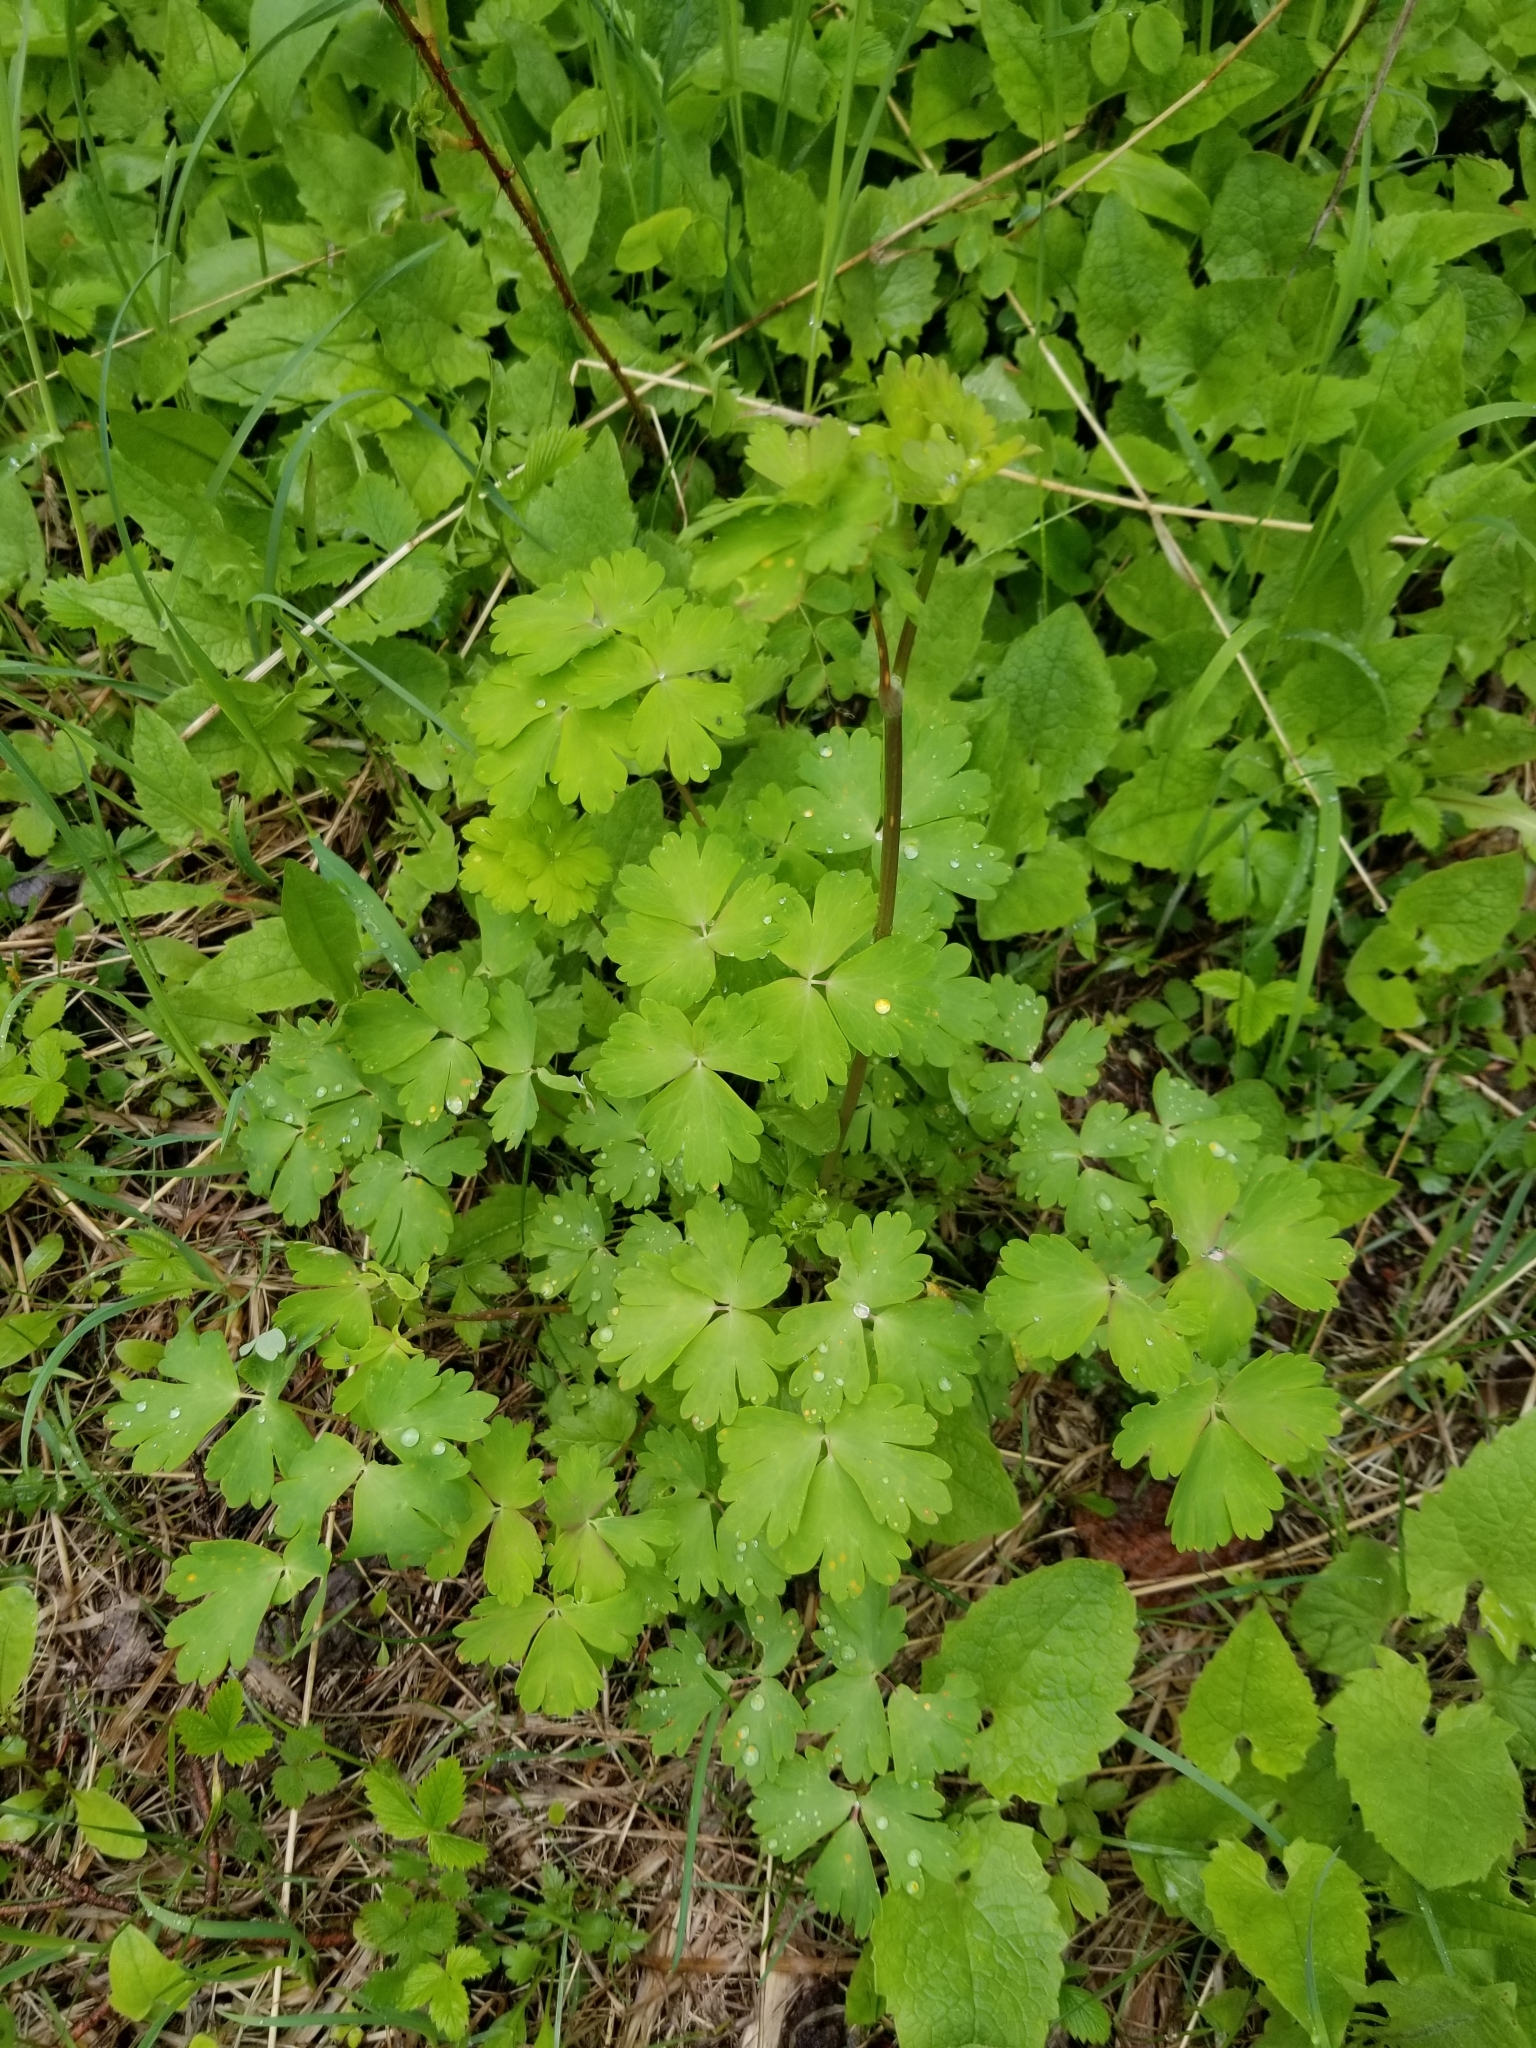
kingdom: Plantae
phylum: Tracheophyta
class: Magnoliopsida
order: Ranunculales
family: Ranunculaceae
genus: Aquilegia
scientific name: Aquilegia formosa
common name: Sitka columbine
